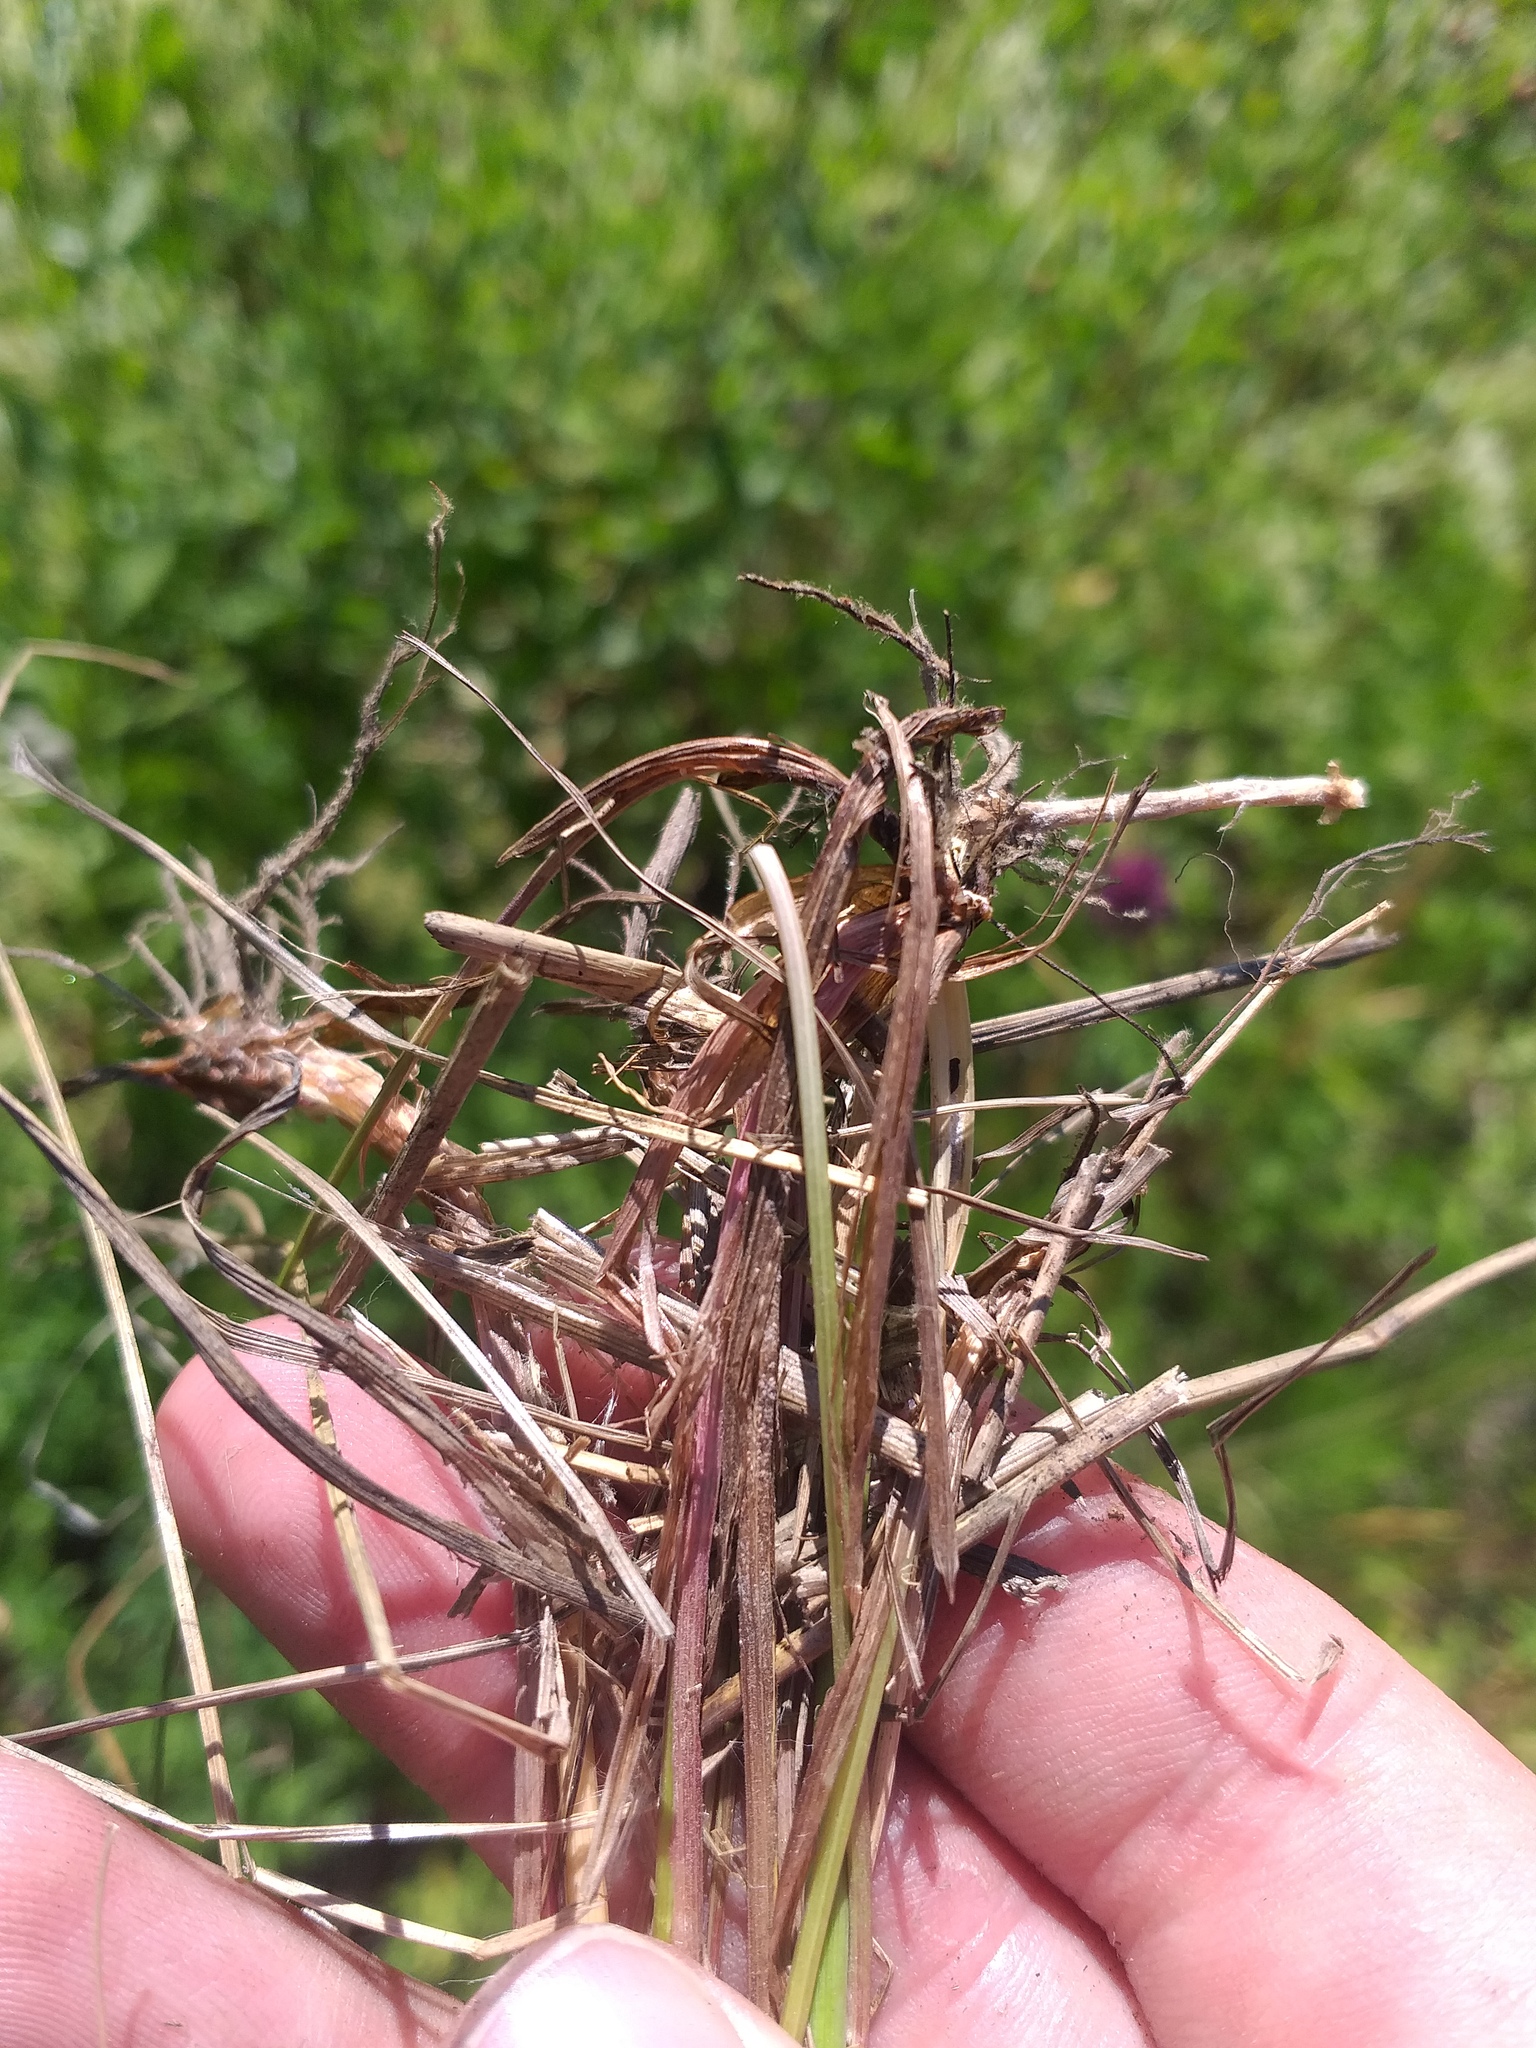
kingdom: Plantae
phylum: Tracheophyta
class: Liliopsida
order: Poales
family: Poaceae
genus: Festuca
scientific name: Festuca rubra
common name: Red fescue
